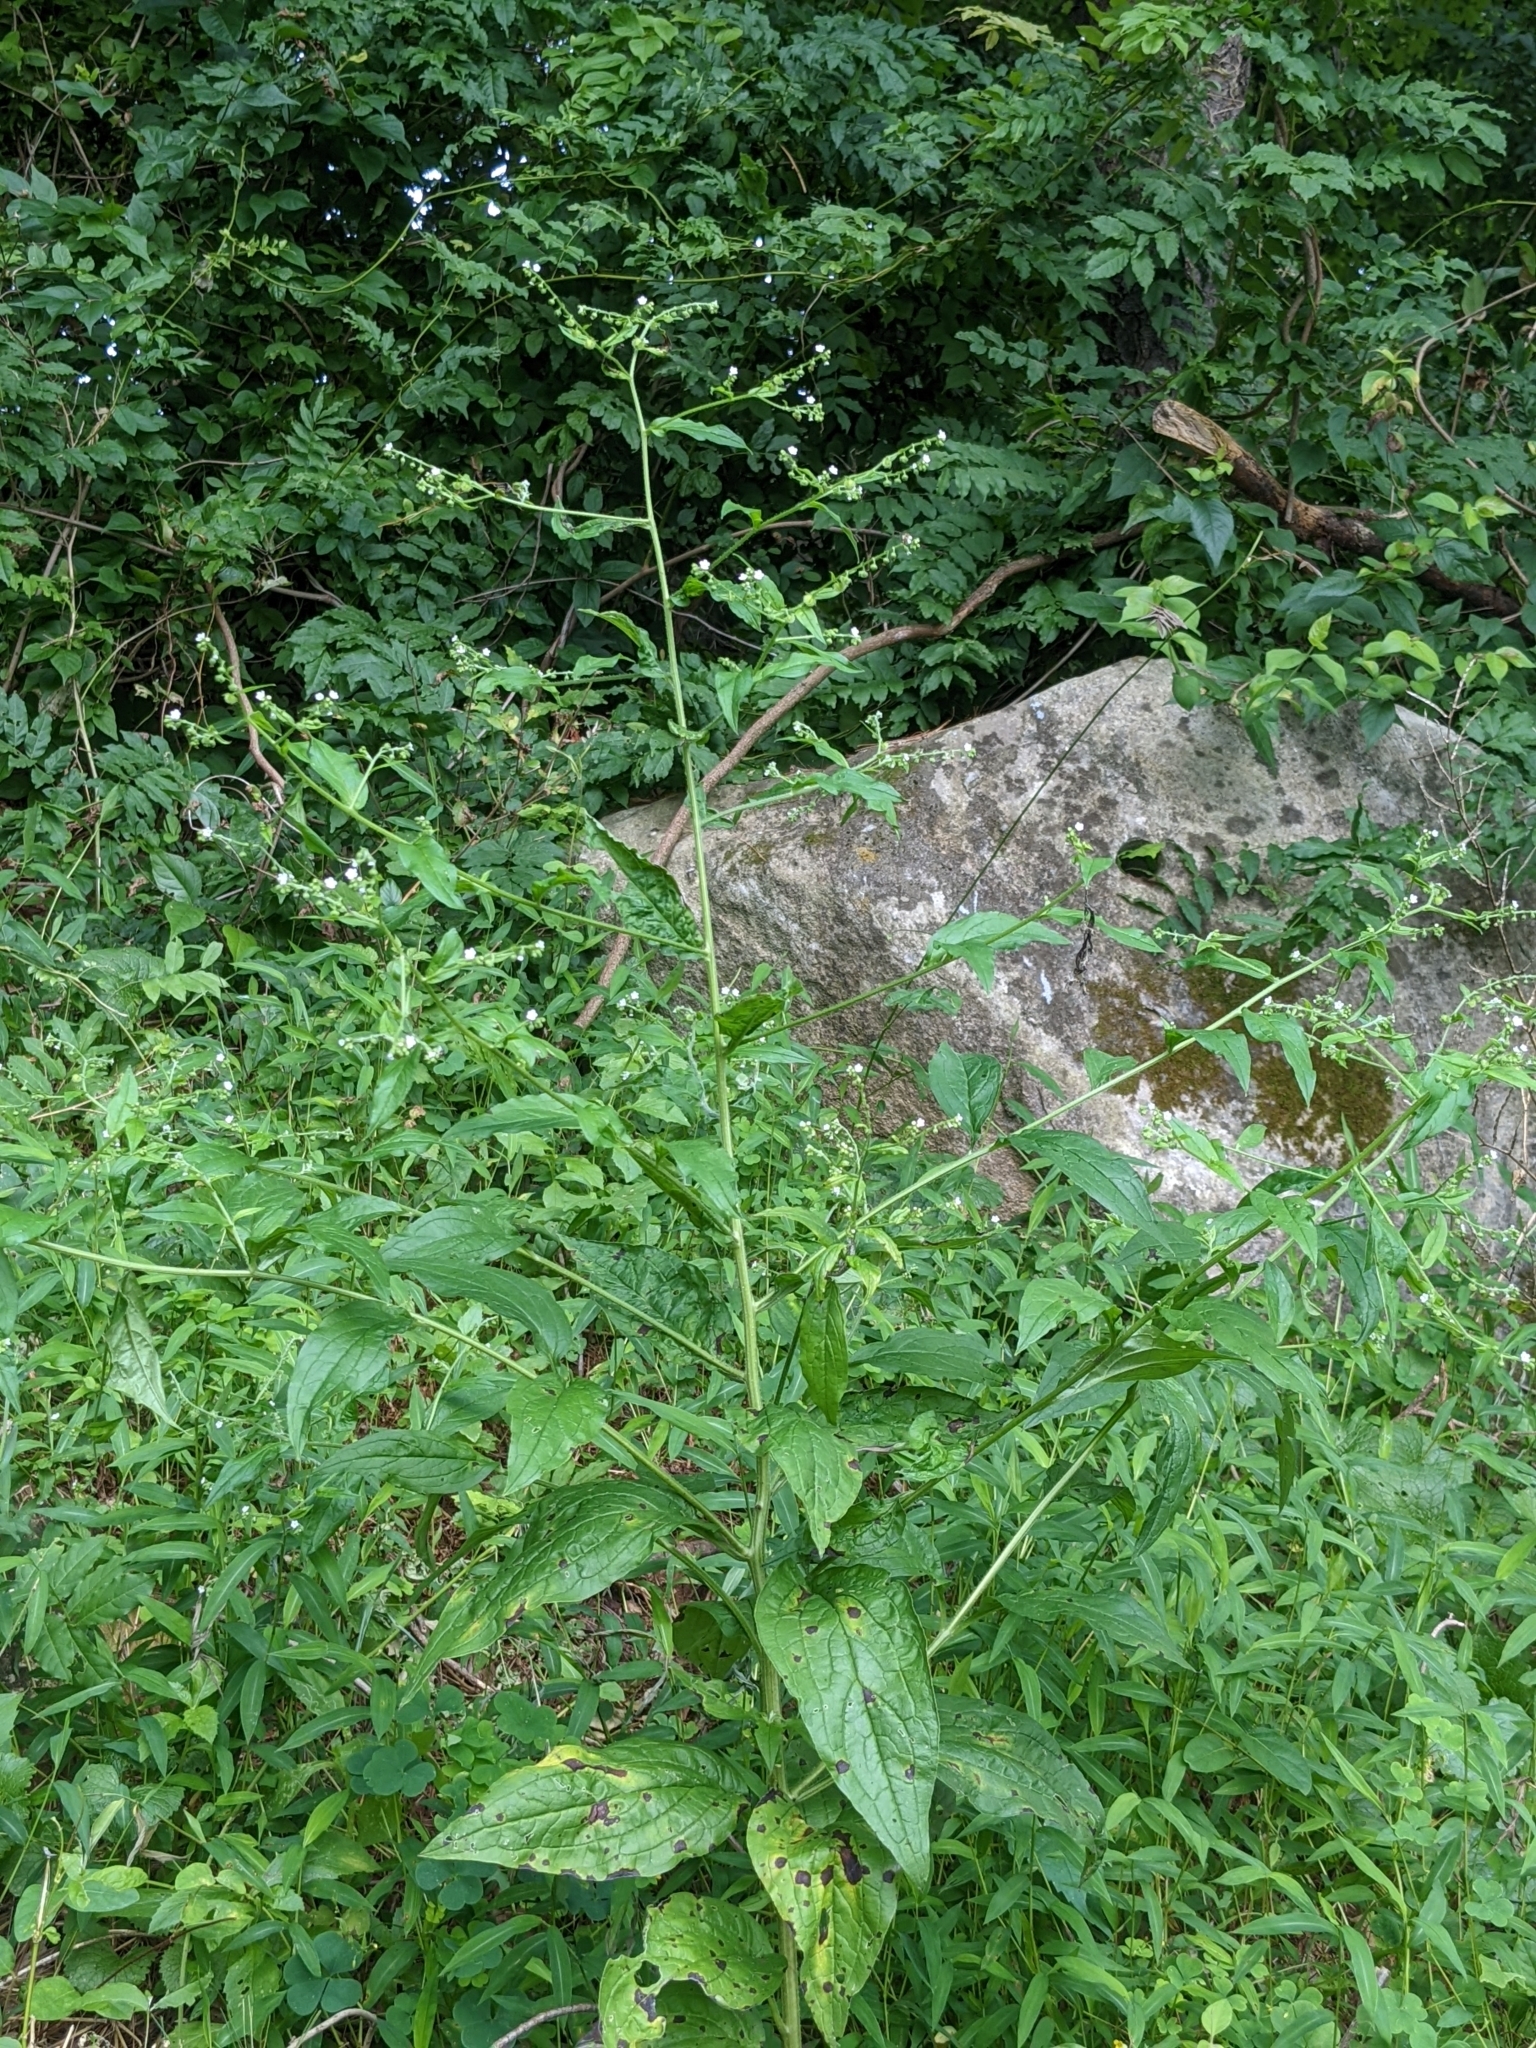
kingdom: Plantae
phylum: Tracheophyta
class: Magnoliopsida
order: Boraginales
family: Boraginaceae
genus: Hackelia
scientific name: Hackelia virginiana
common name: Beggar's-lice
